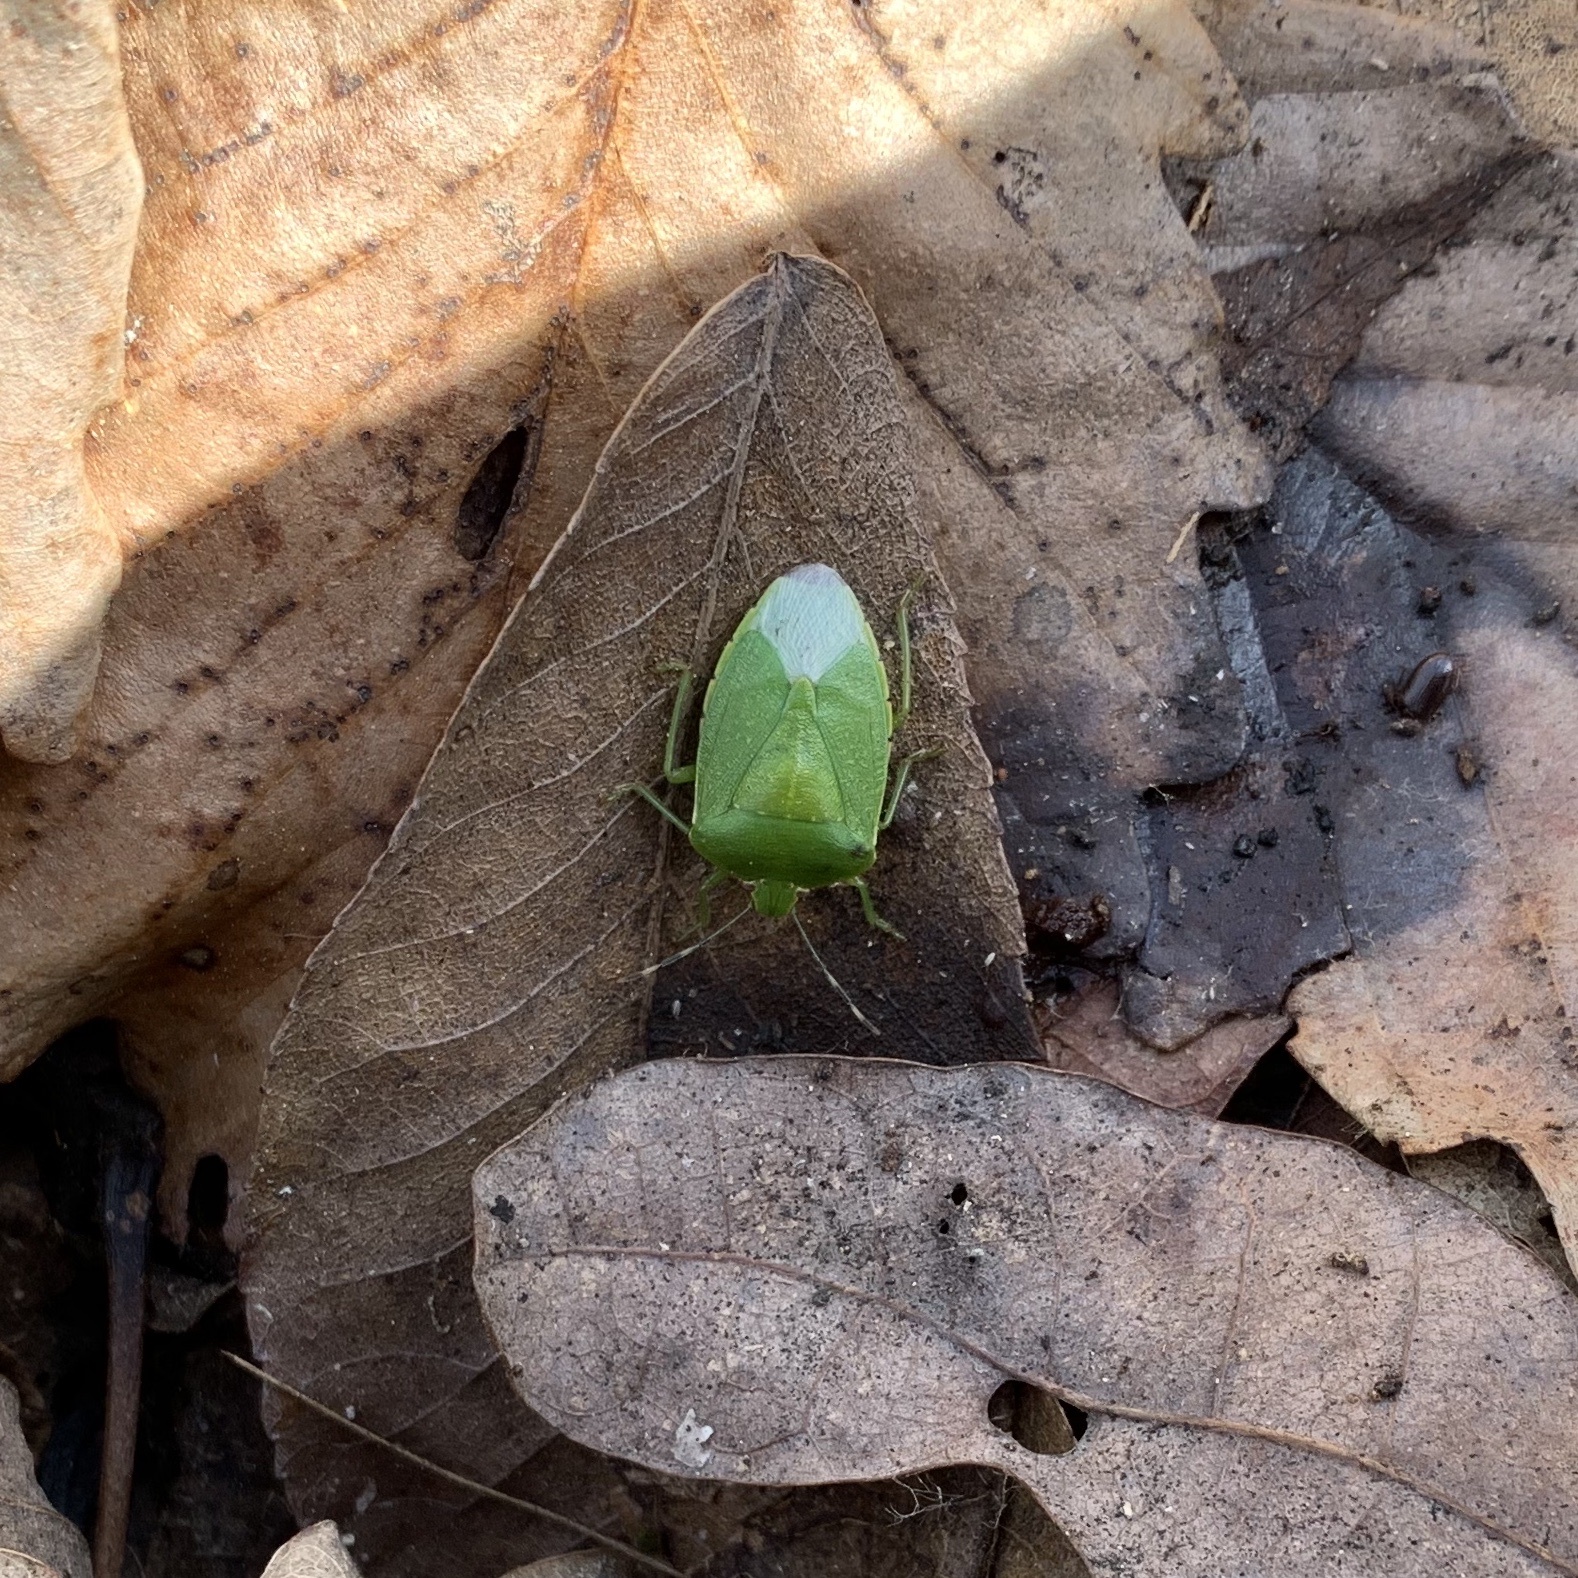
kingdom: Animalia
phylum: Arthropoda
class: Insecta
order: Hemiptera
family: Pentatomidae
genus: Chinavia
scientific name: Chinavia hilaris
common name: Green stink bug
